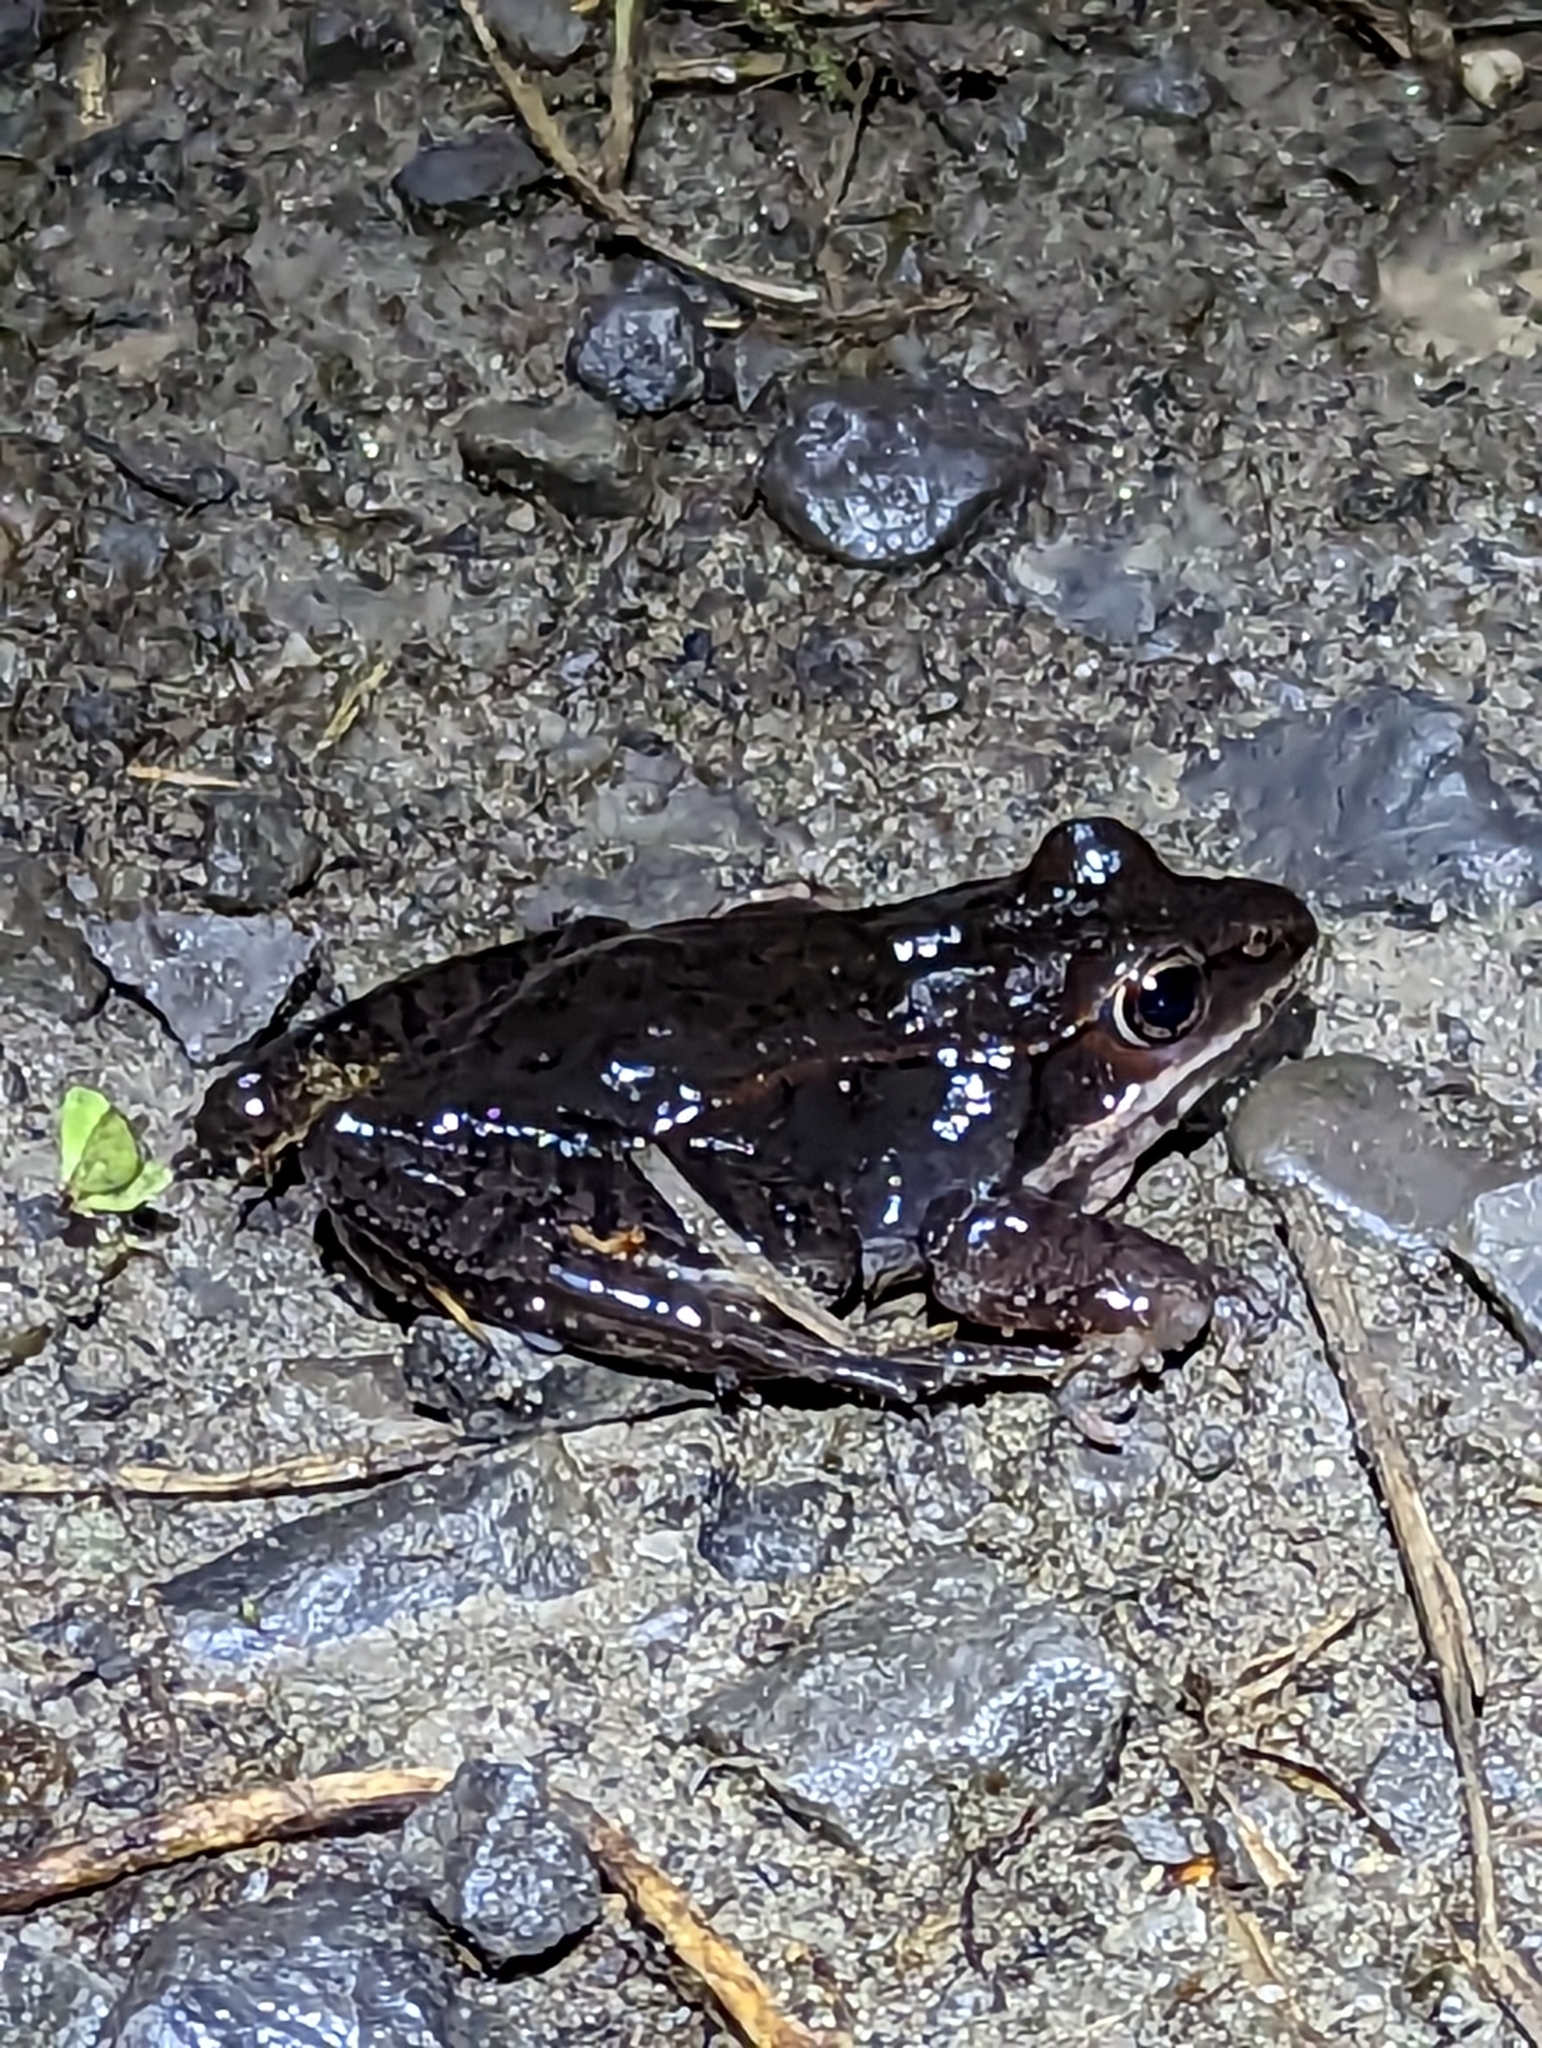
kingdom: Animalia
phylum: Chordata
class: Amphibia
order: Anura
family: Ranidae
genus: Lithobates
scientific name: Lithobates sylvaticus
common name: Wood frog
